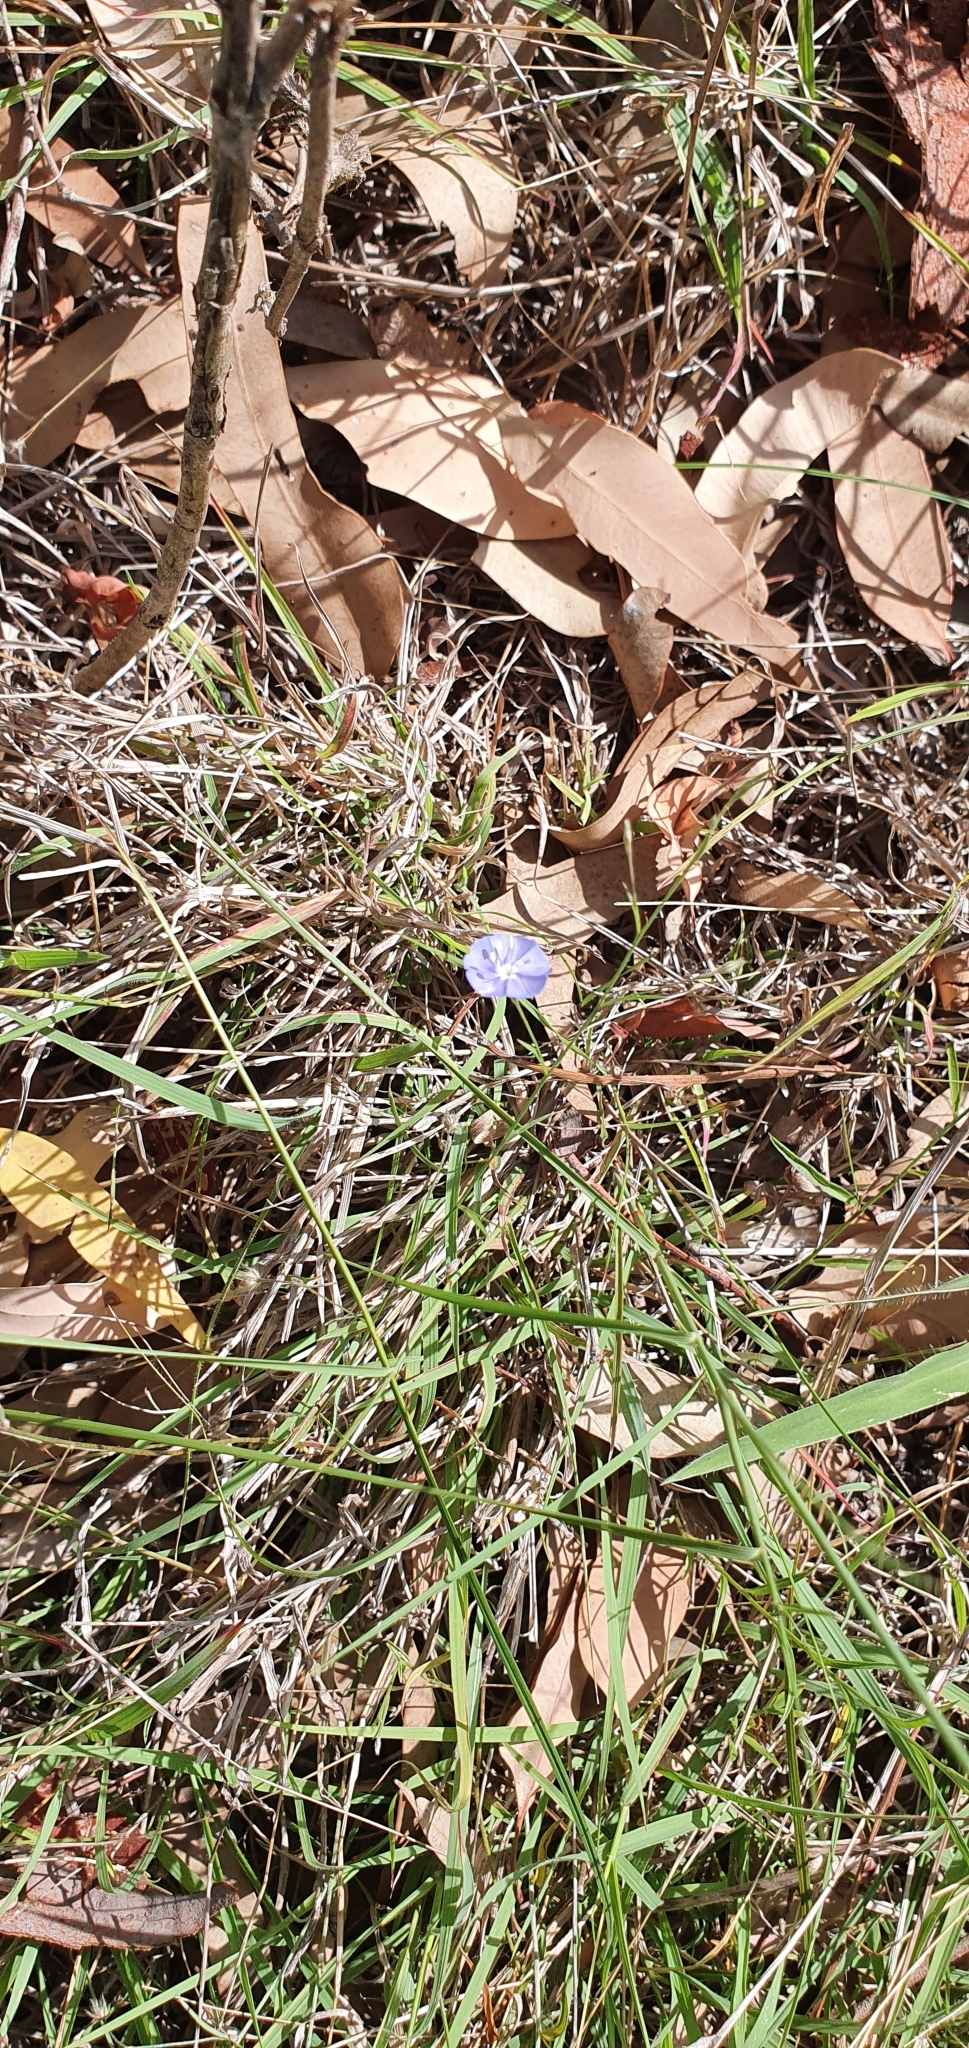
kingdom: Plantae
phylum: Tracheophyta
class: Magnoliopsida
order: Solanales
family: Convolvulaceae
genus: Evolvulus
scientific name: Evolvulus alsinoides
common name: Slender dwarf morning-glory
